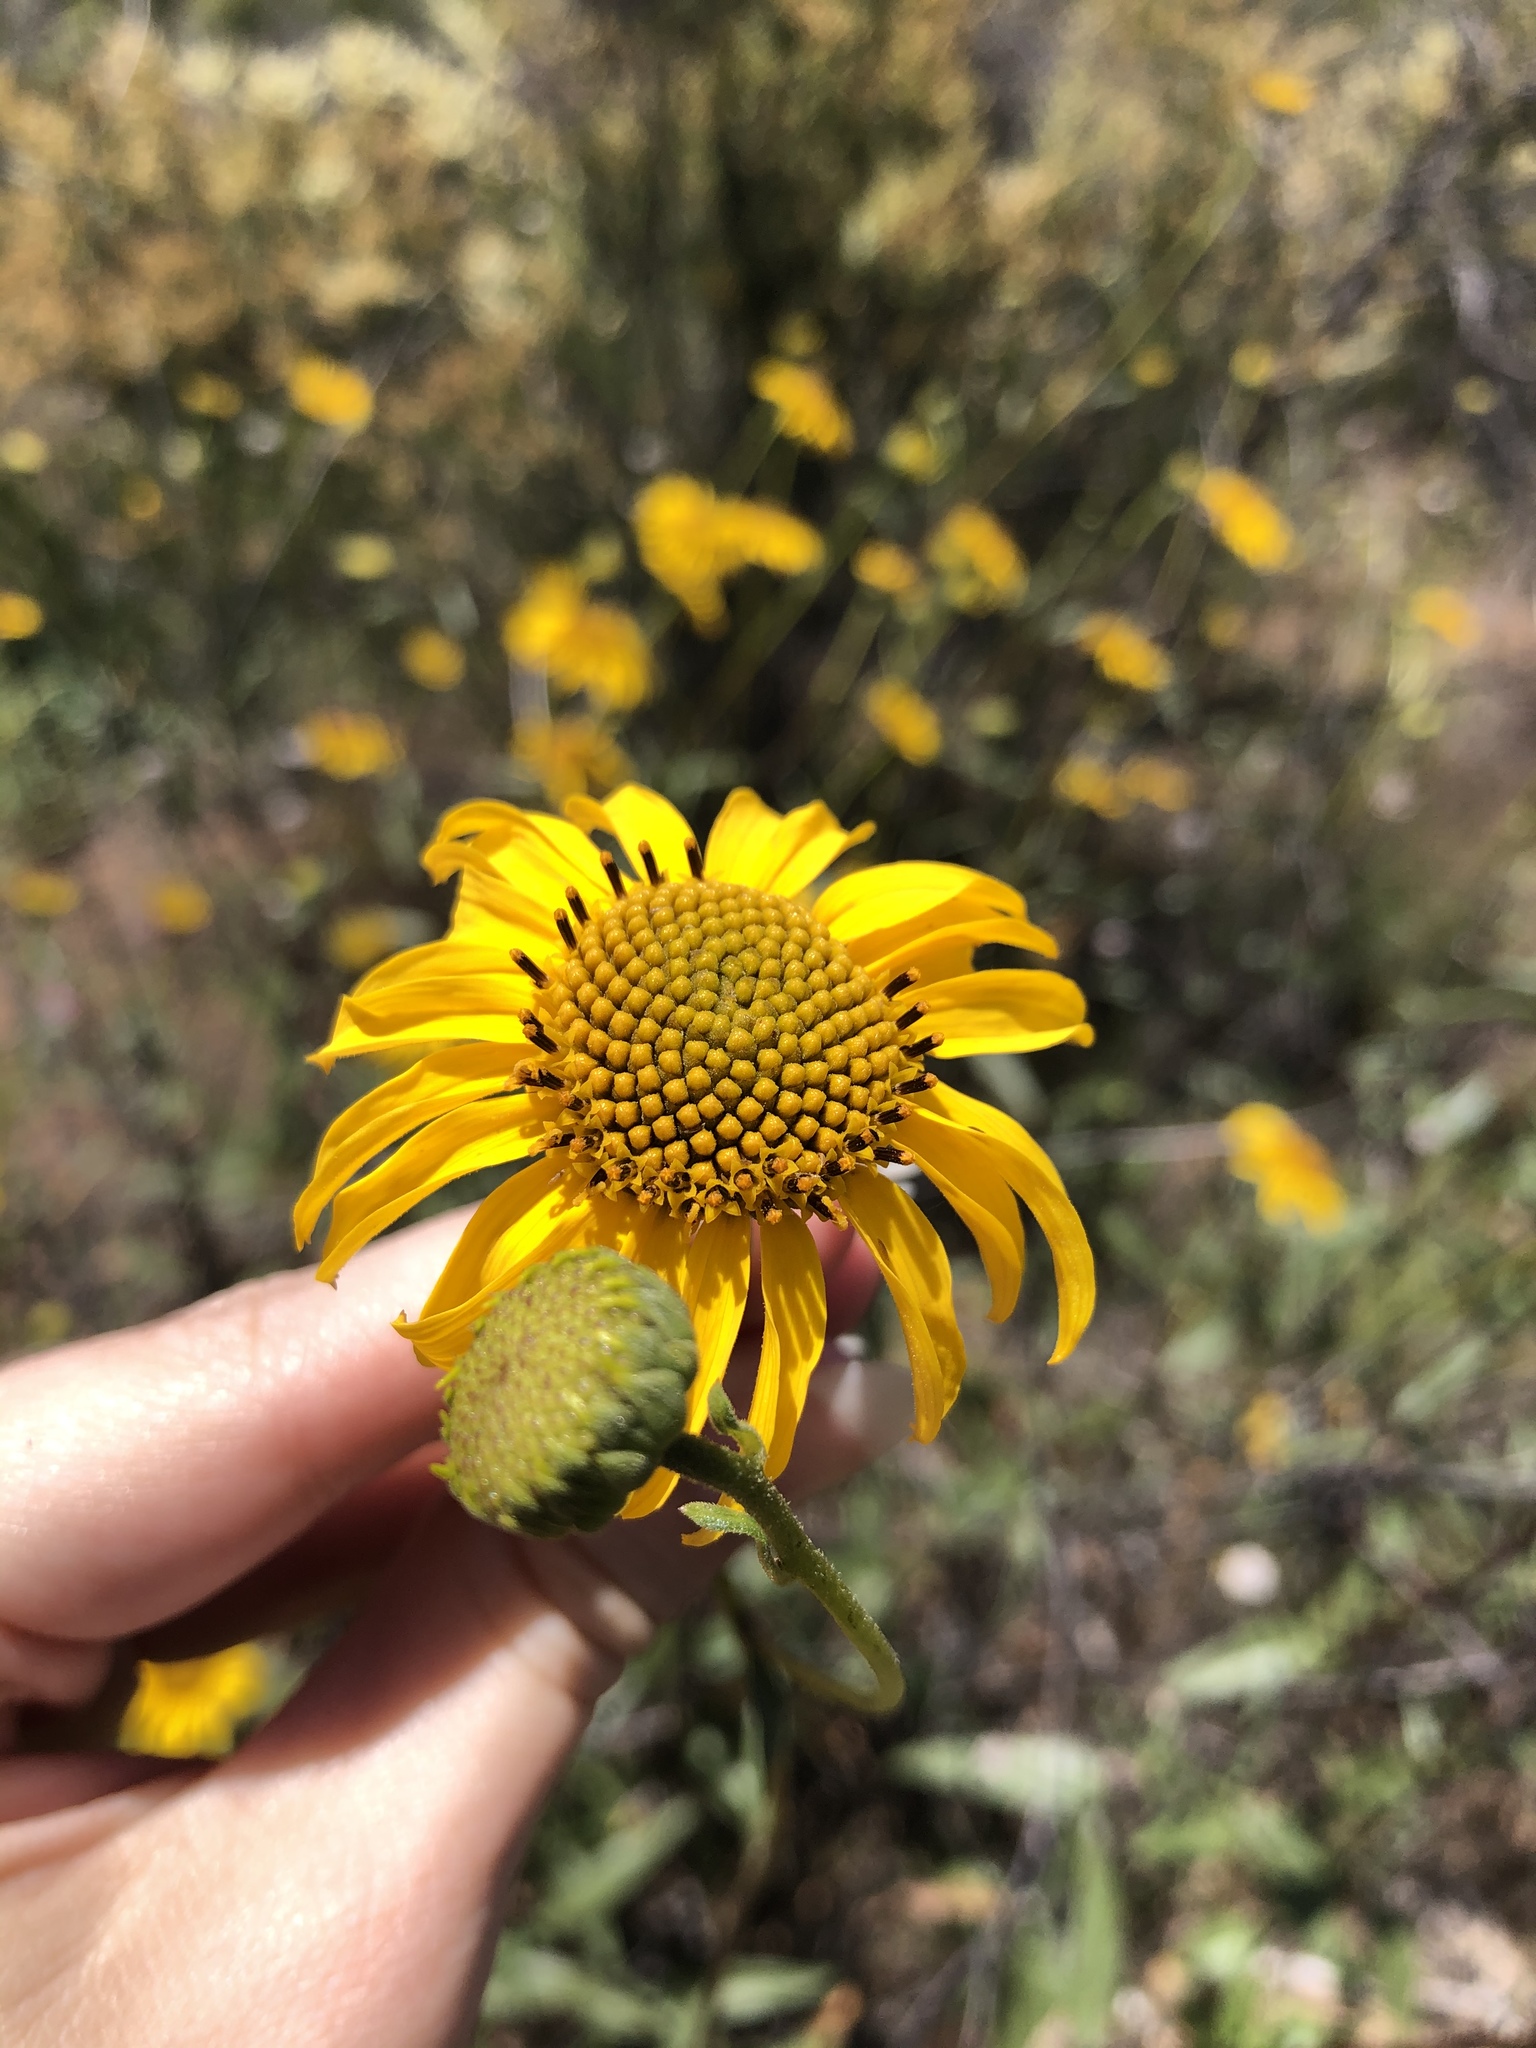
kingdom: Plantae
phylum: Tracheophyta
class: Magnoliopsida
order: Asterales
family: Asteraceae
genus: Helianthus
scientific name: Helianthus gracilentus
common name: Slender sunflower
